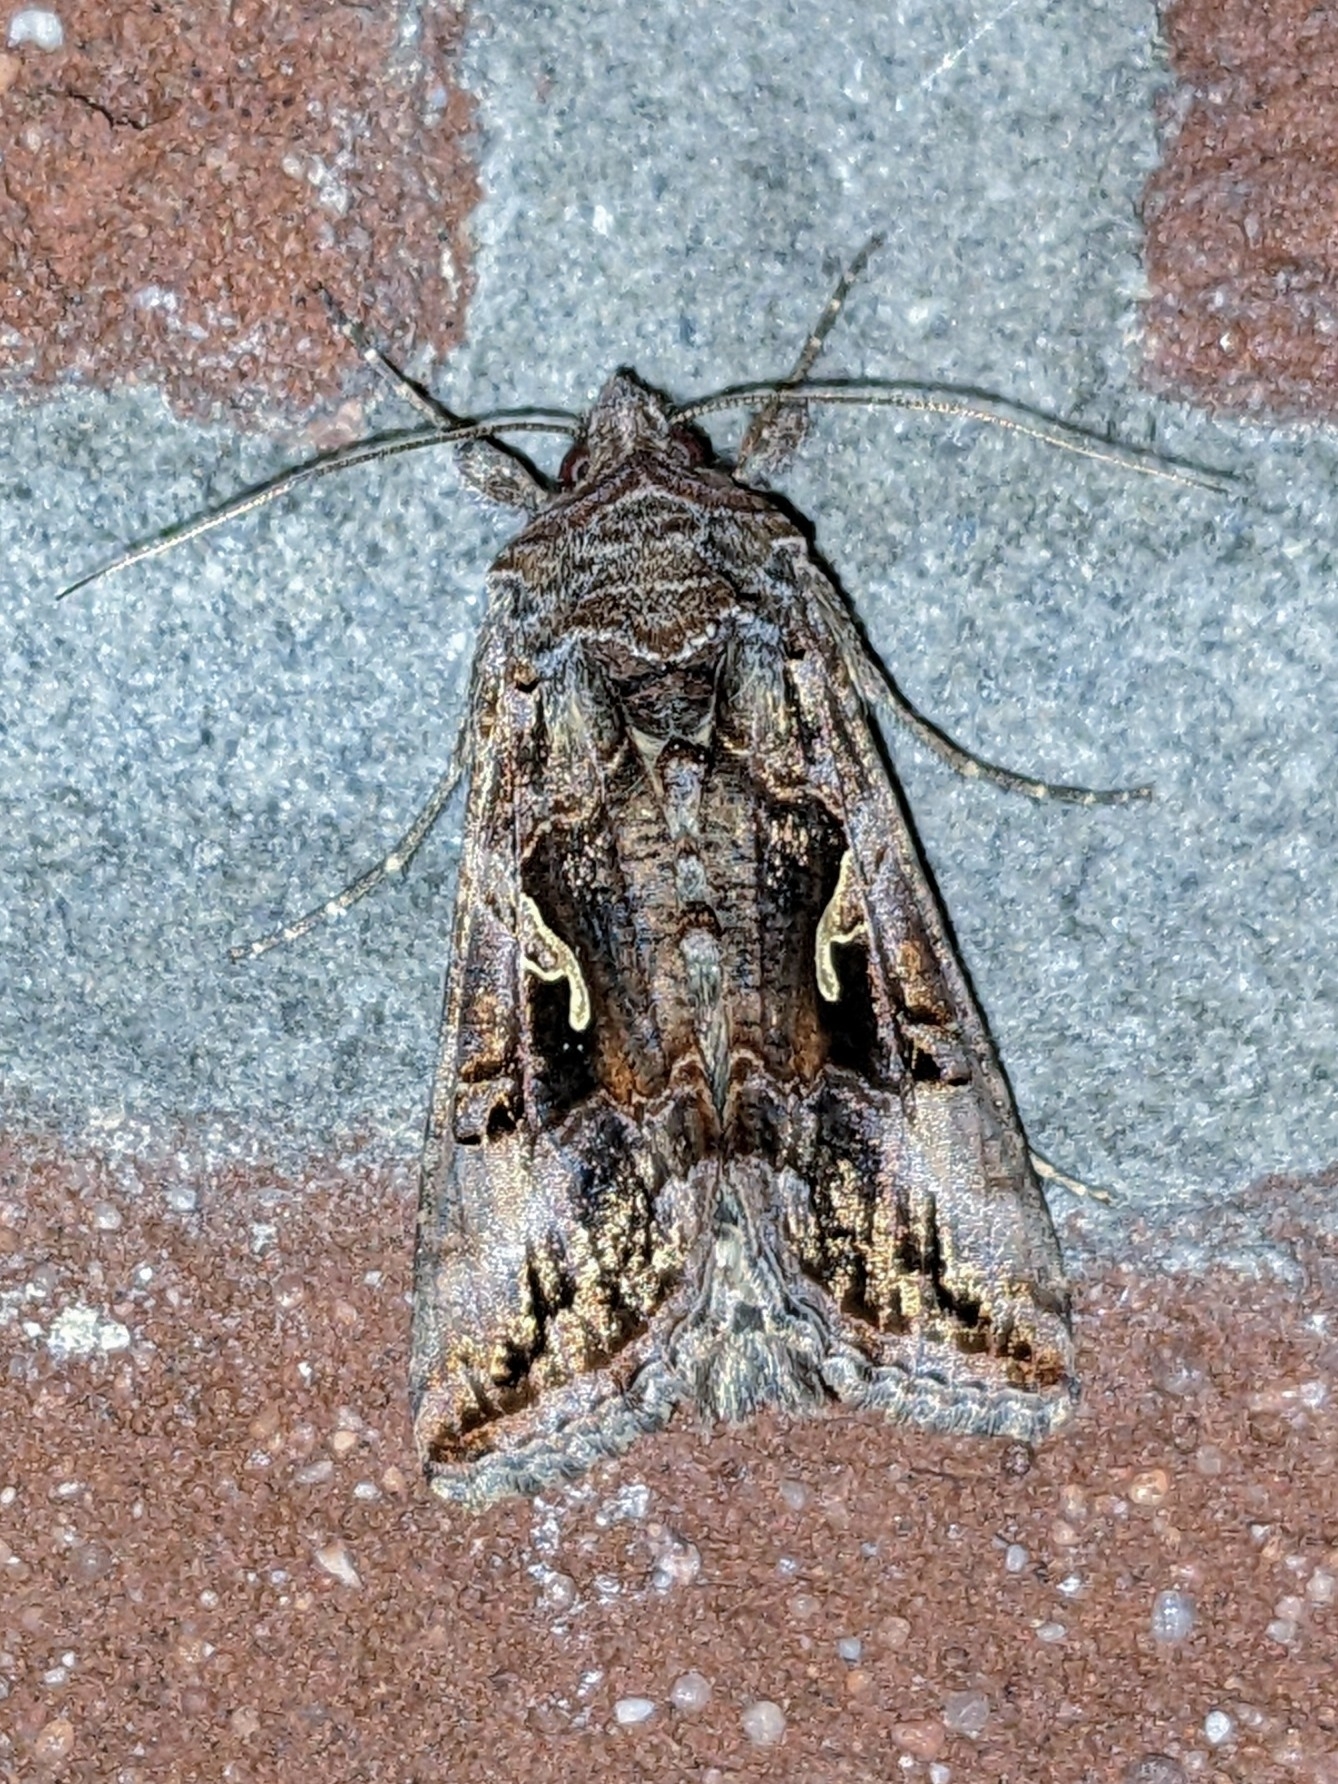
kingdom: Animalia
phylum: Arthropoda
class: Insecta
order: Lepidoptera
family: Noctuidae
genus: Autographa
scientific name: Autographa gamma
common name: Silver y
